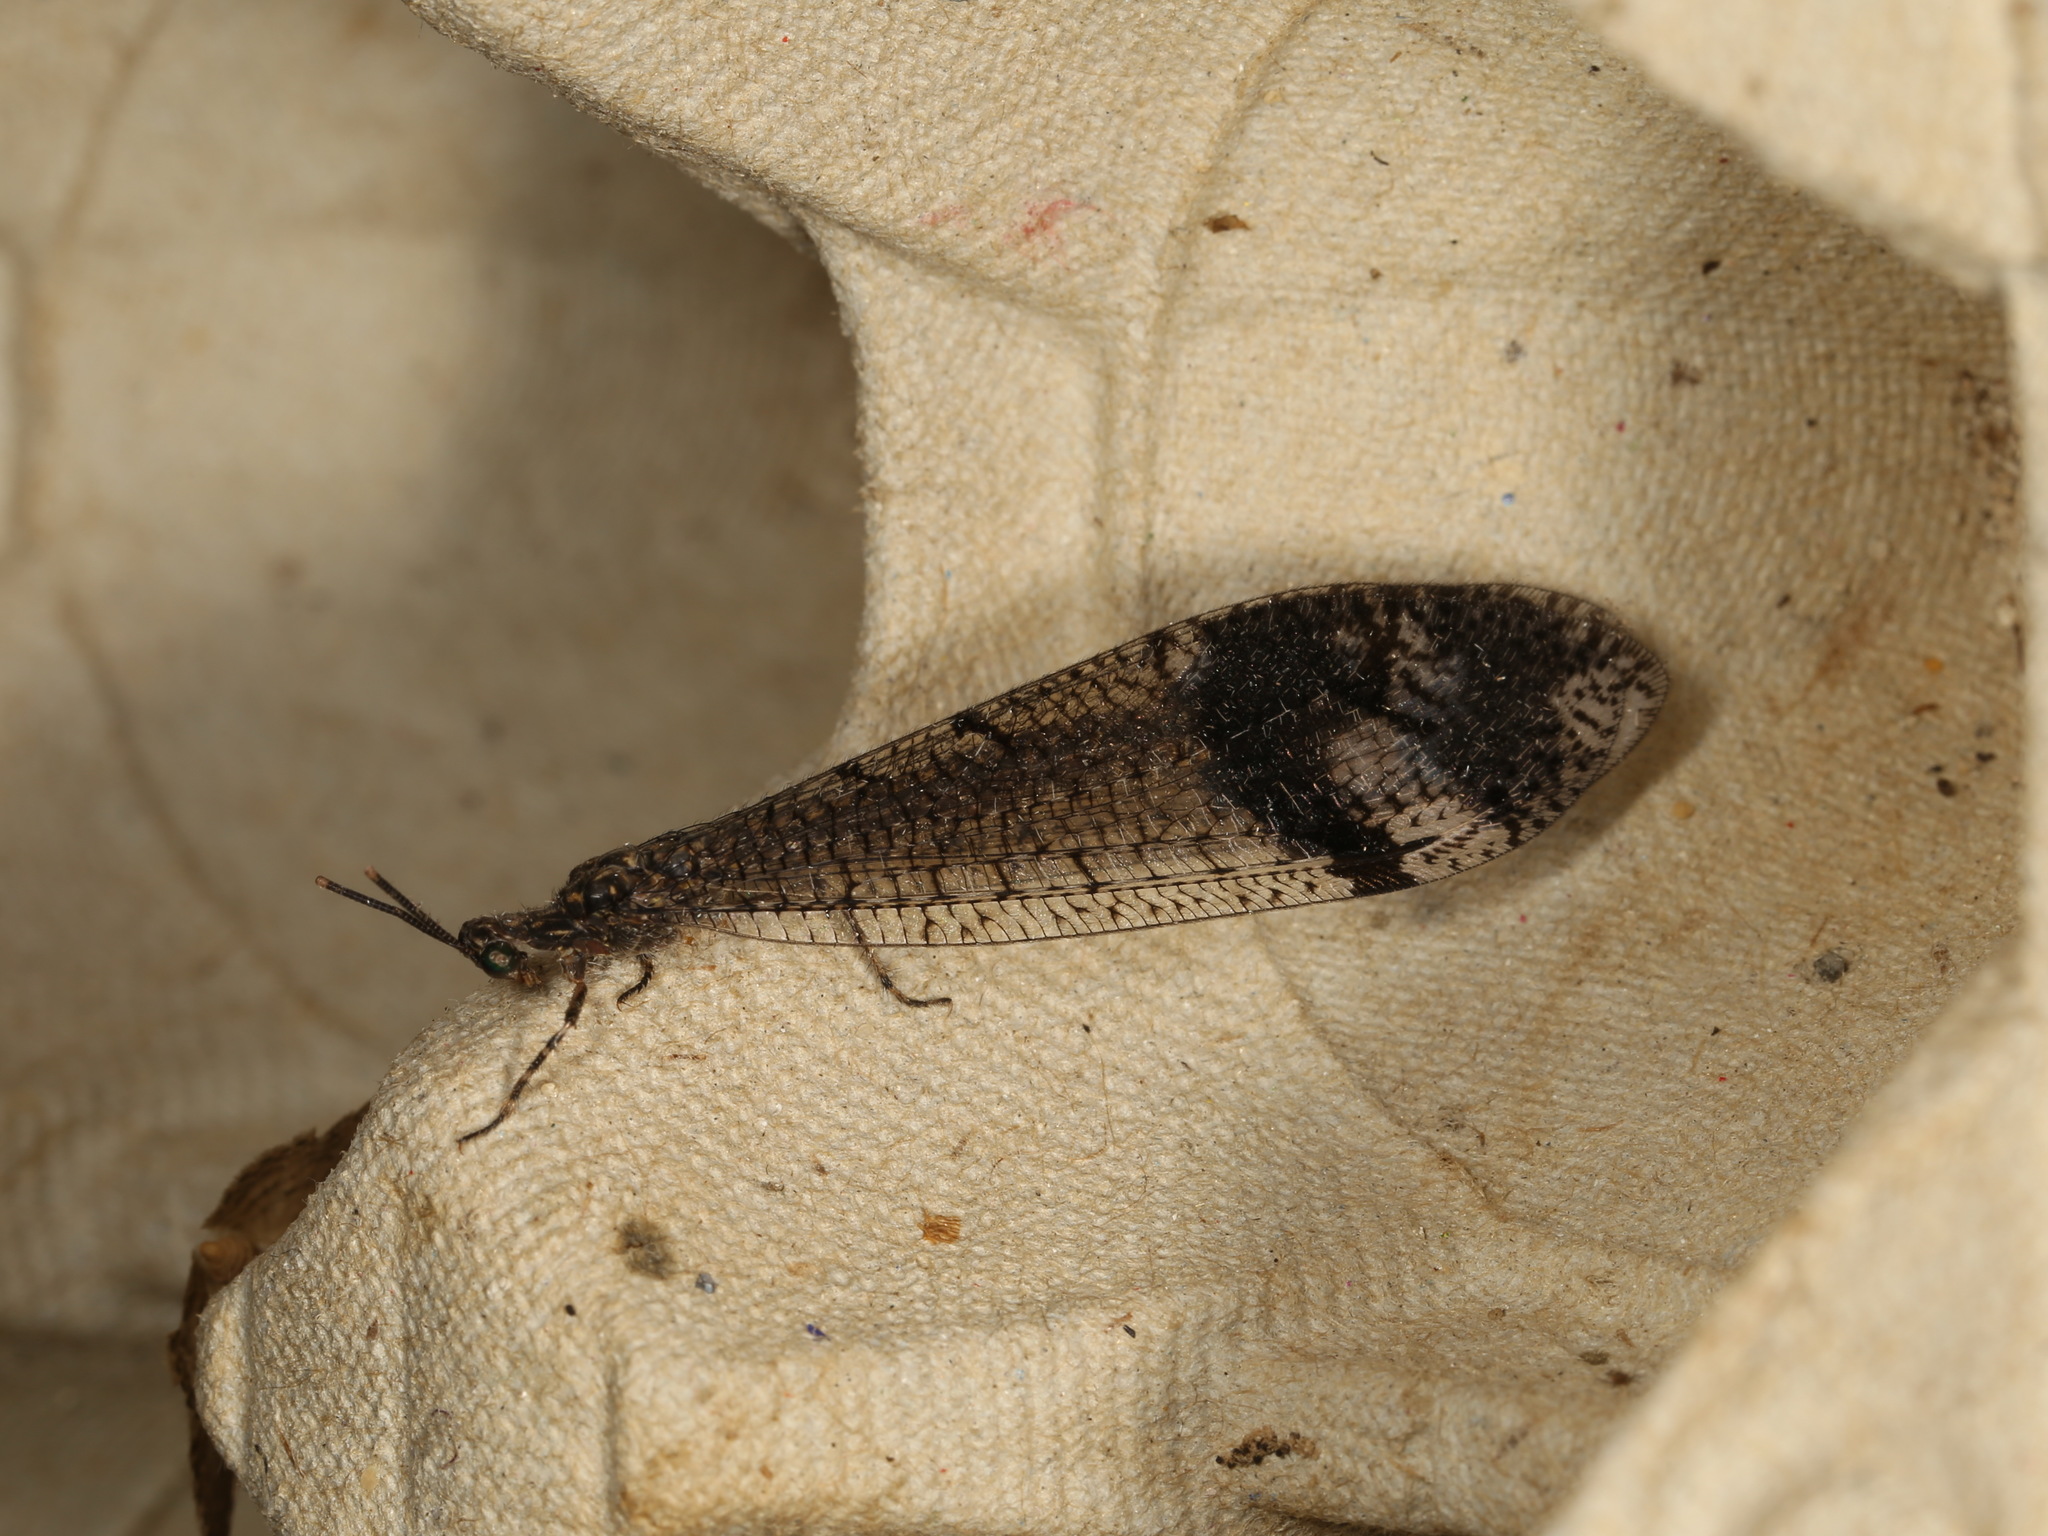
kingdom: Animalia
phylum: Arthropoda
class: Insecta
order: Neuroptera
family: Myrmeleontidae
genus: Glenoleon
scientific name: Glenoleon pulchellus
